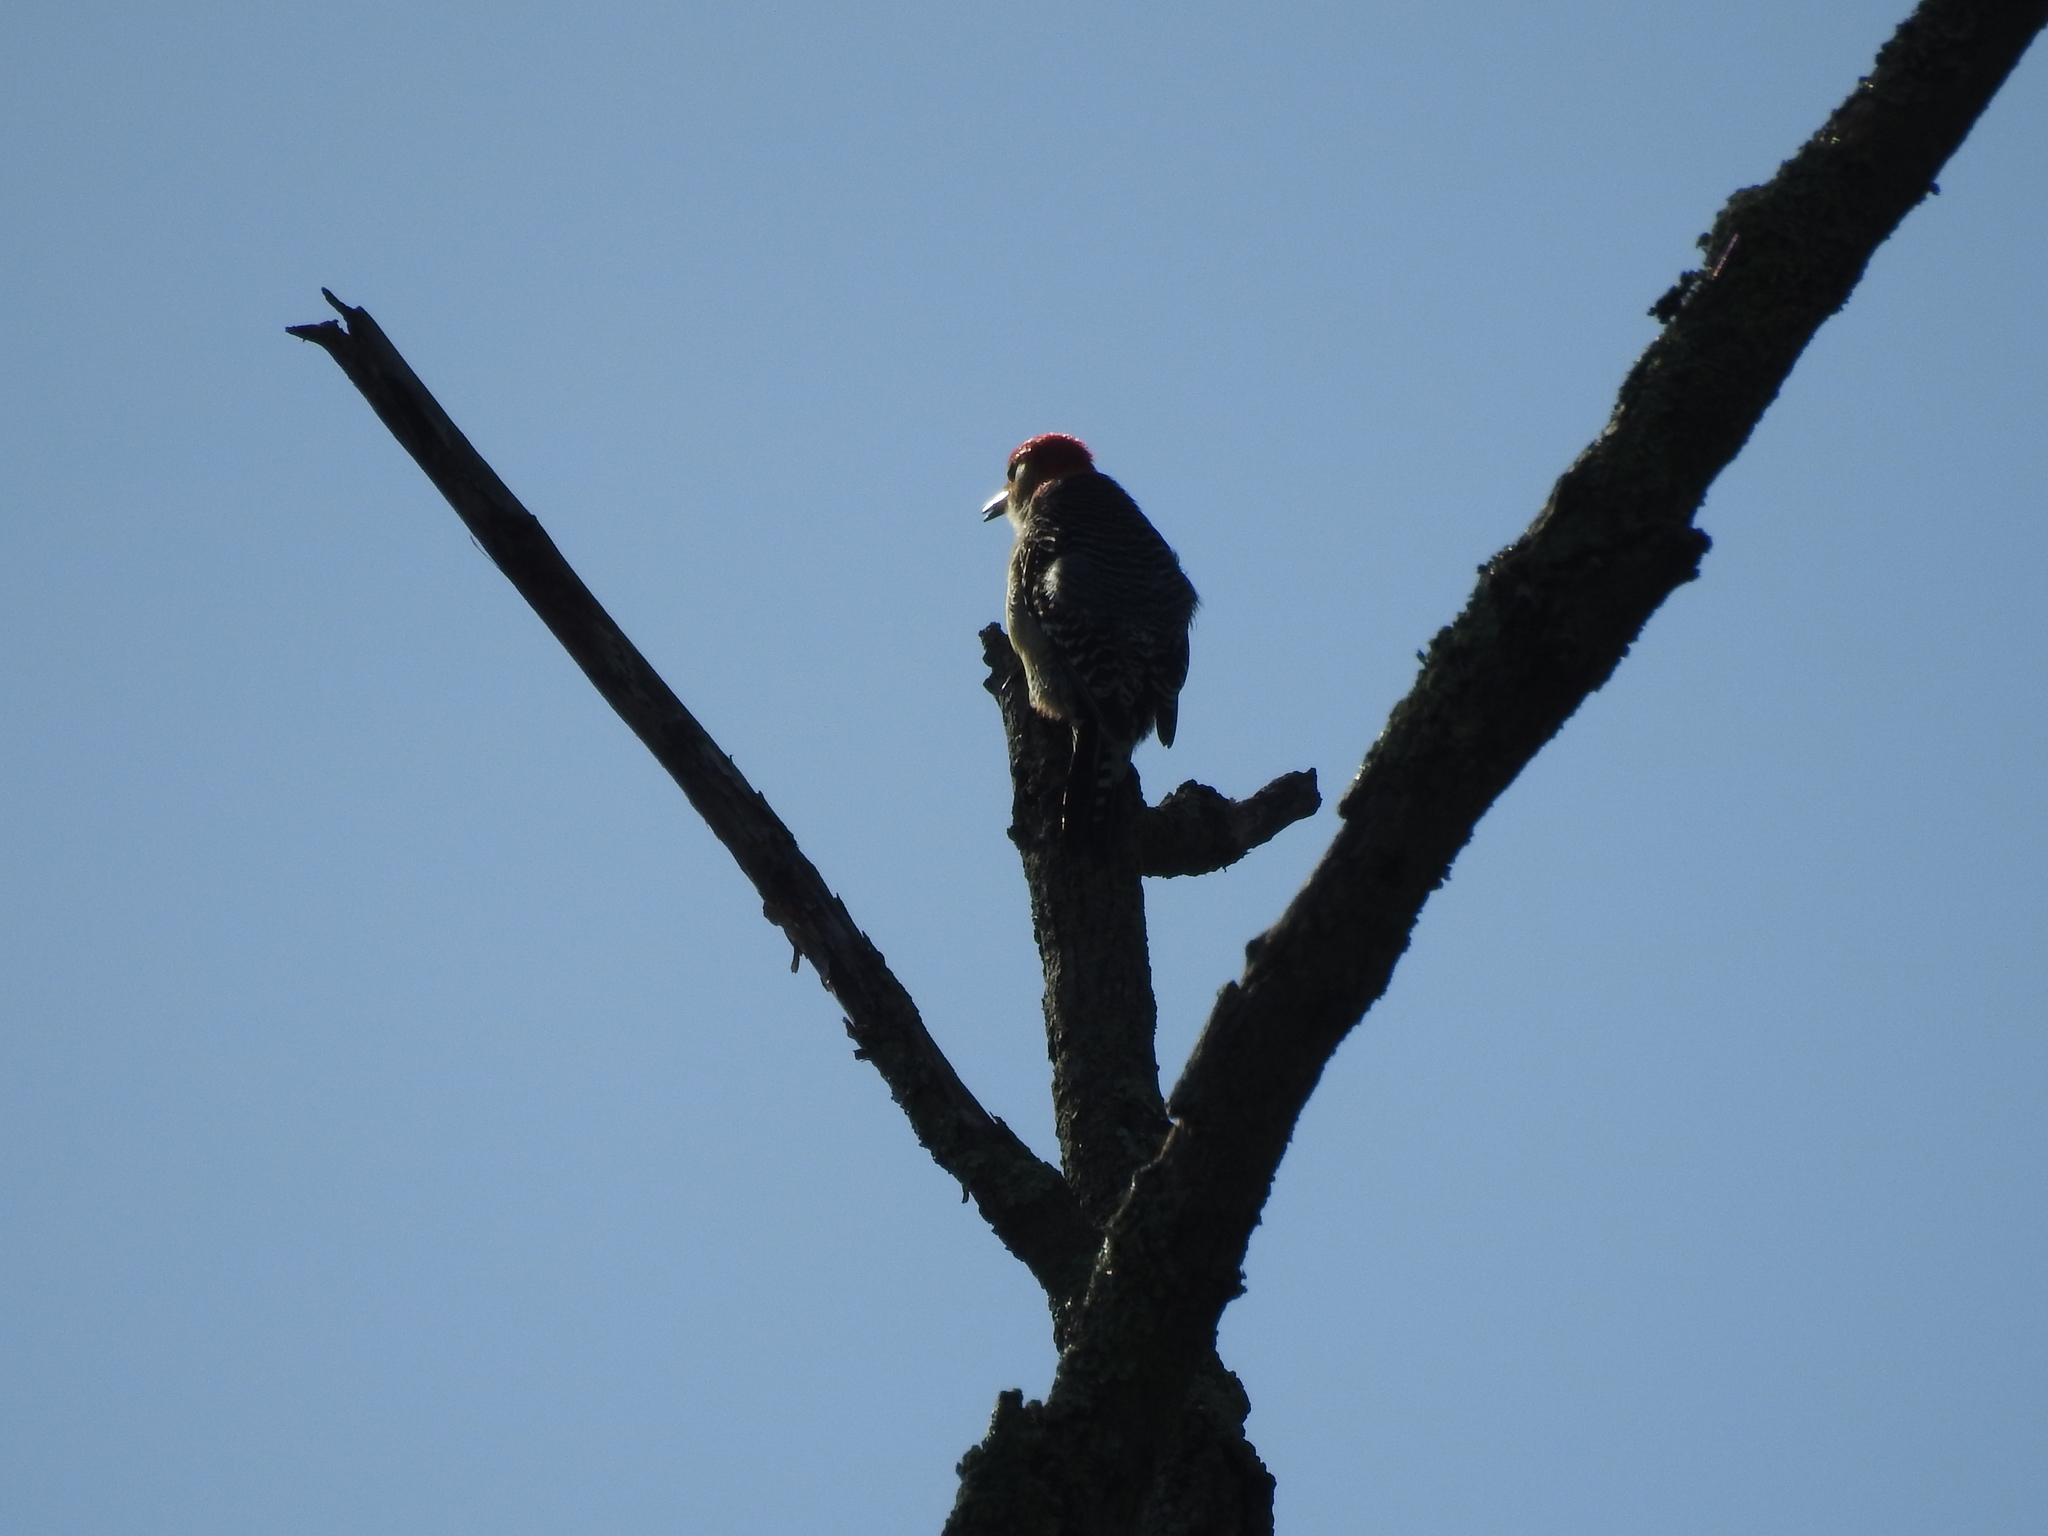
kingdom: Animalia
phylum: Chordata
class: Aves
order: Piciformes
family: Picidae
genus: Melanerpes
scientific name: Melanerpes carolinus
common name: Red-bellied woodpecker
